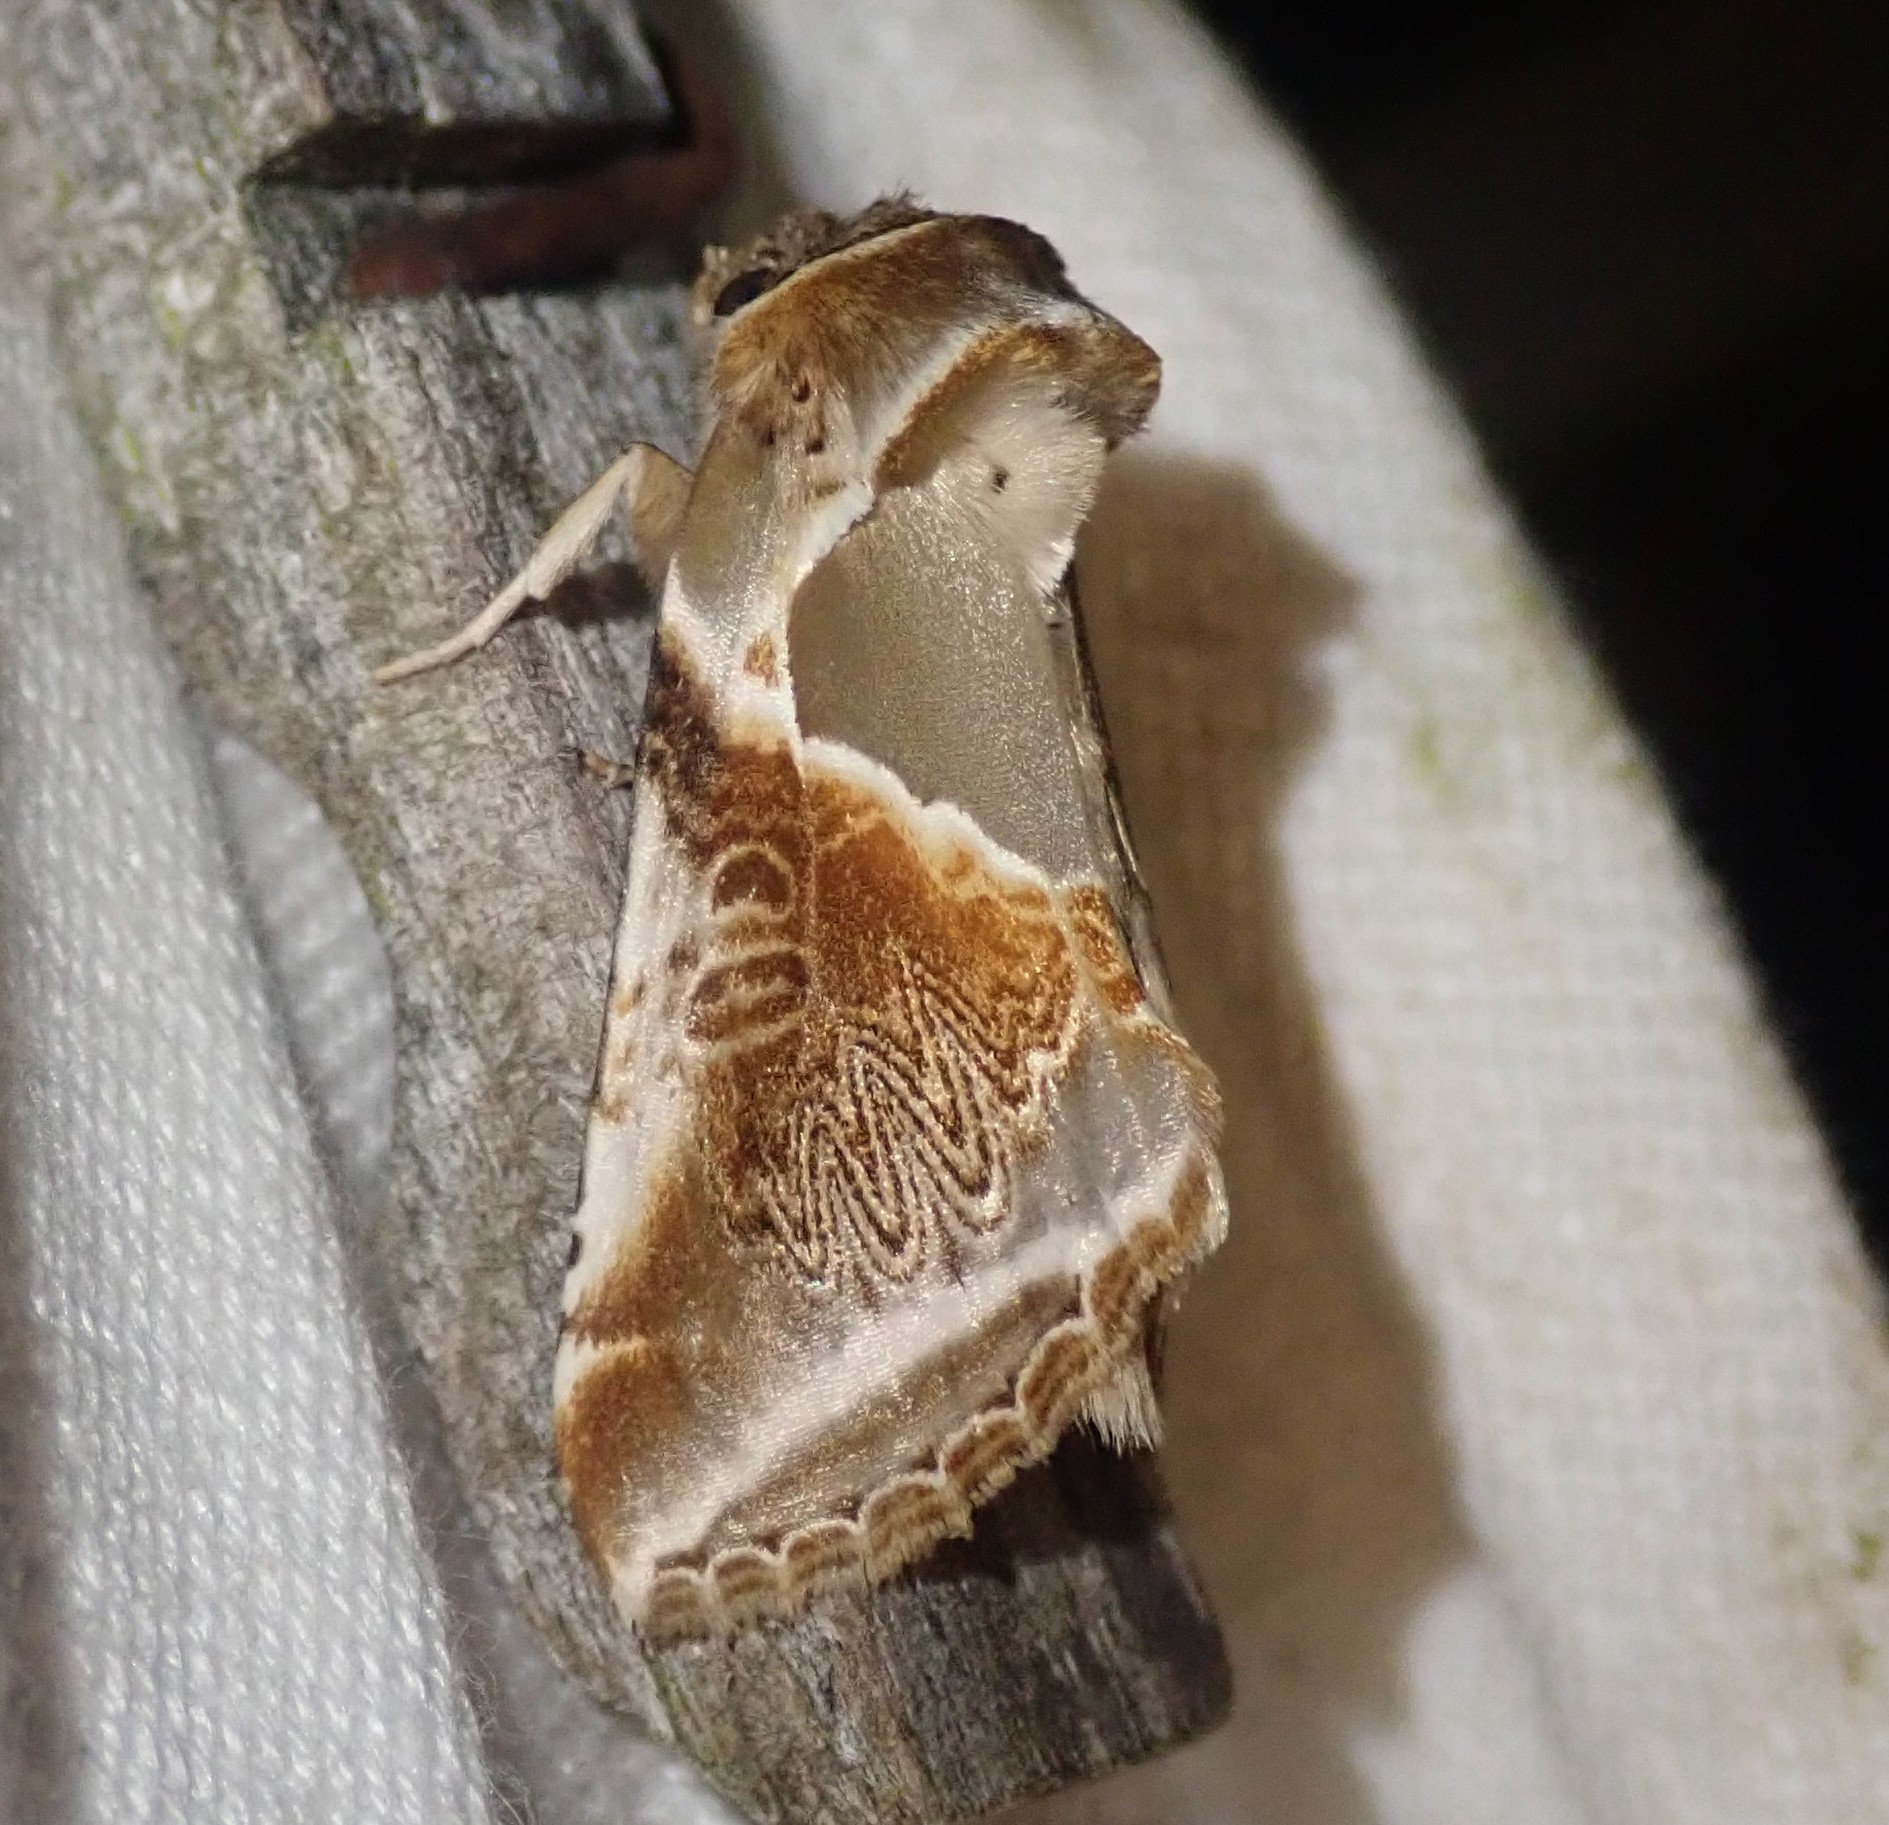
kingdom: Animalia
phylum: Arthropoda
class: Insecta
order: Lepidoptera
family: Drepanidae
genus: Habrosyne
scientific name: Habrosyne pyritoides
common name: Buff arches
